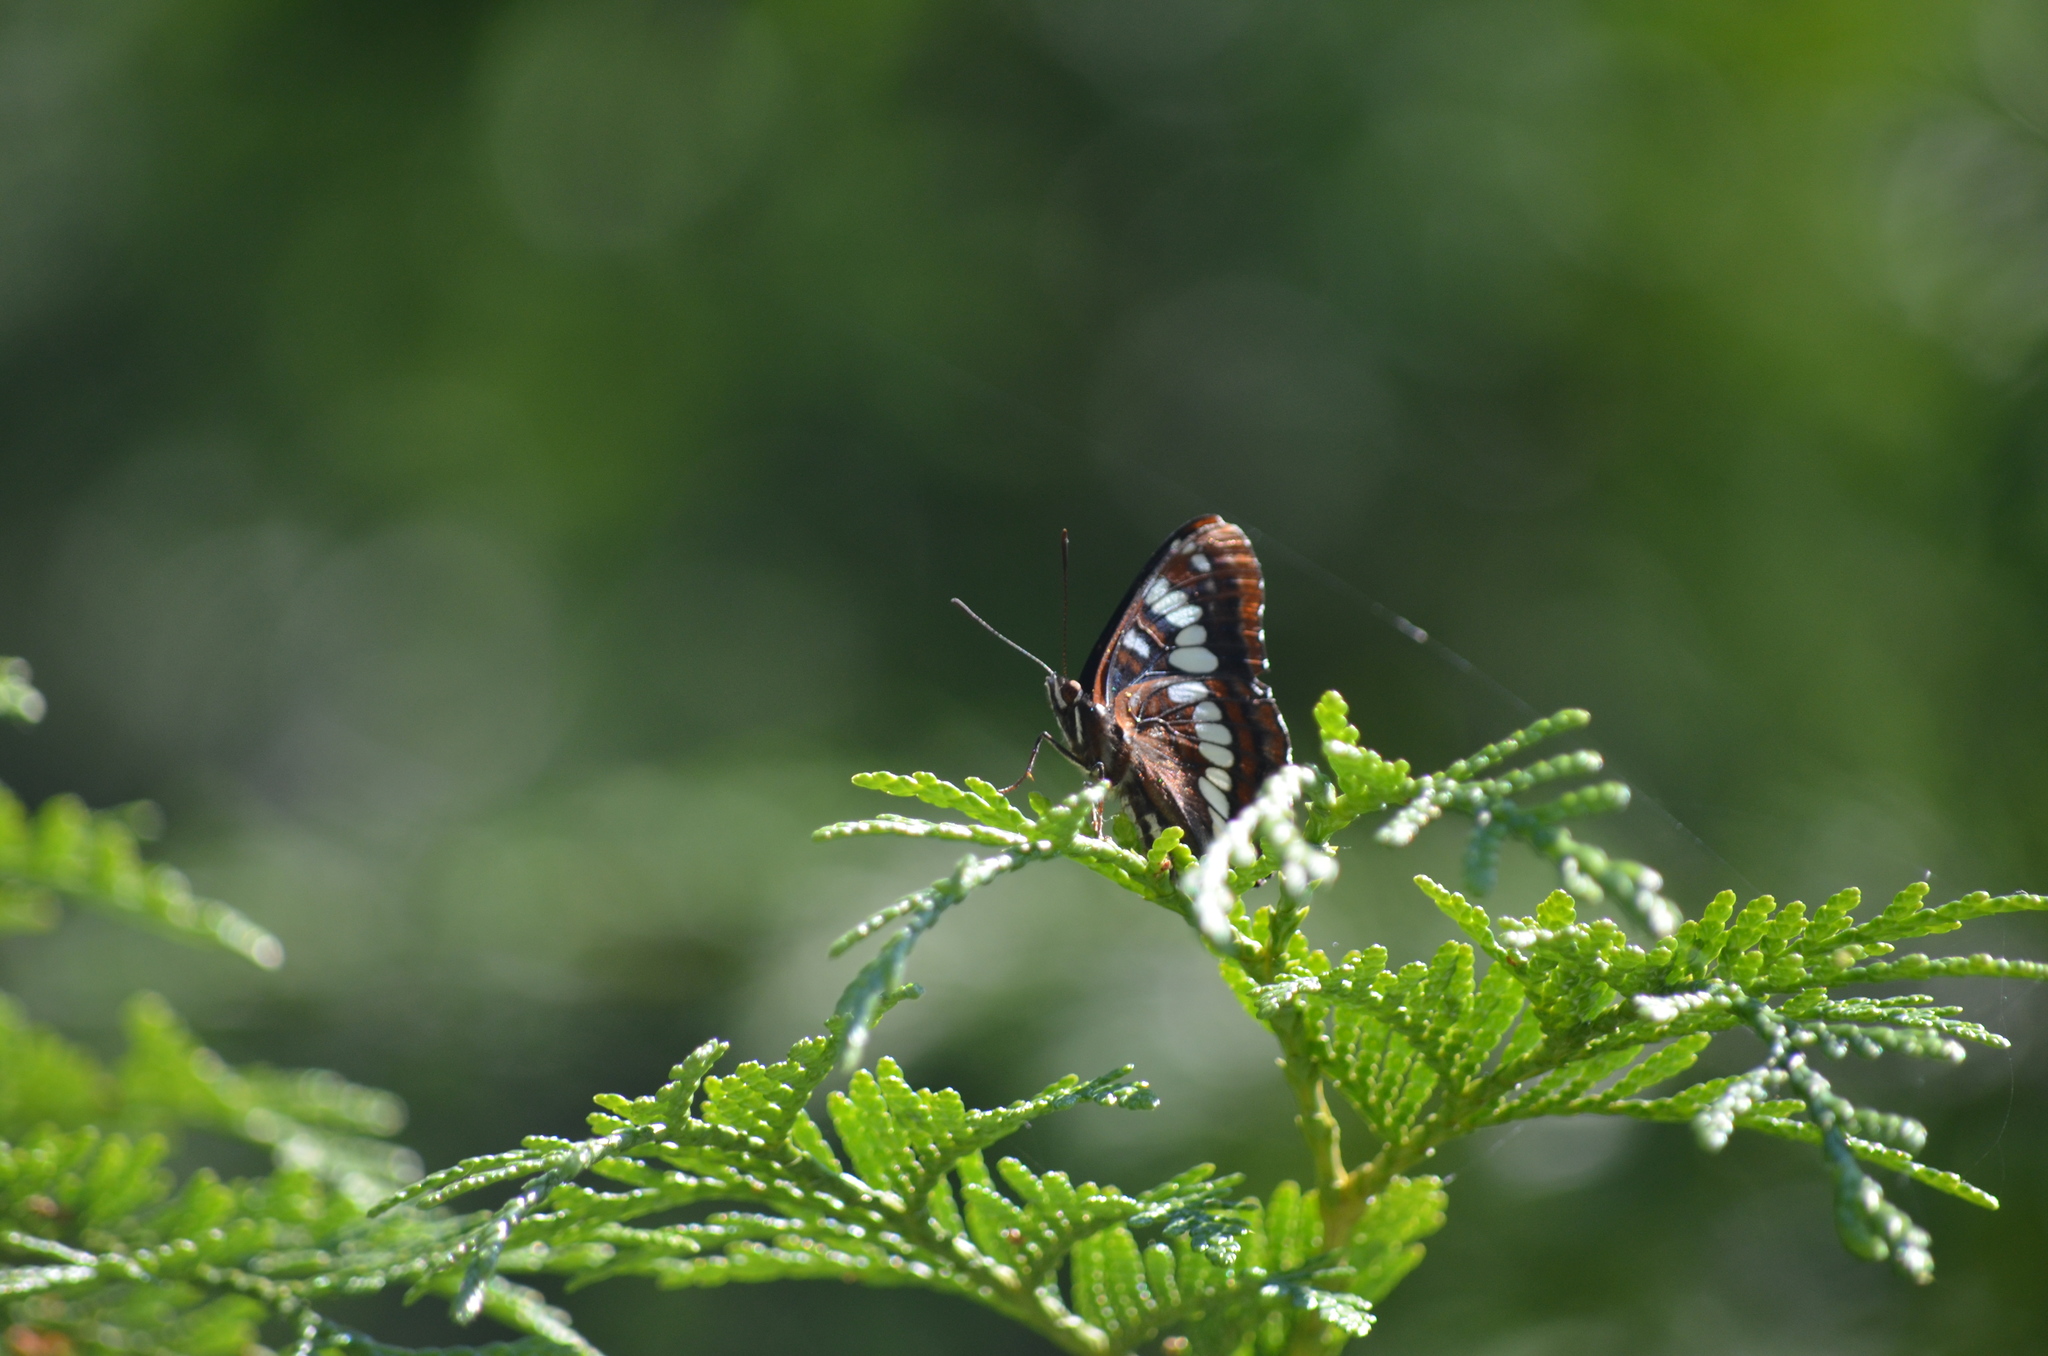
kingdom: Animalia
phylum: Arthropoda
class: Insecta
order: Lepidoptera
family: Nymphalidae
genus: Limenitis
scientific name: Limenitis lorquini
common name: Lorquin's admiral
